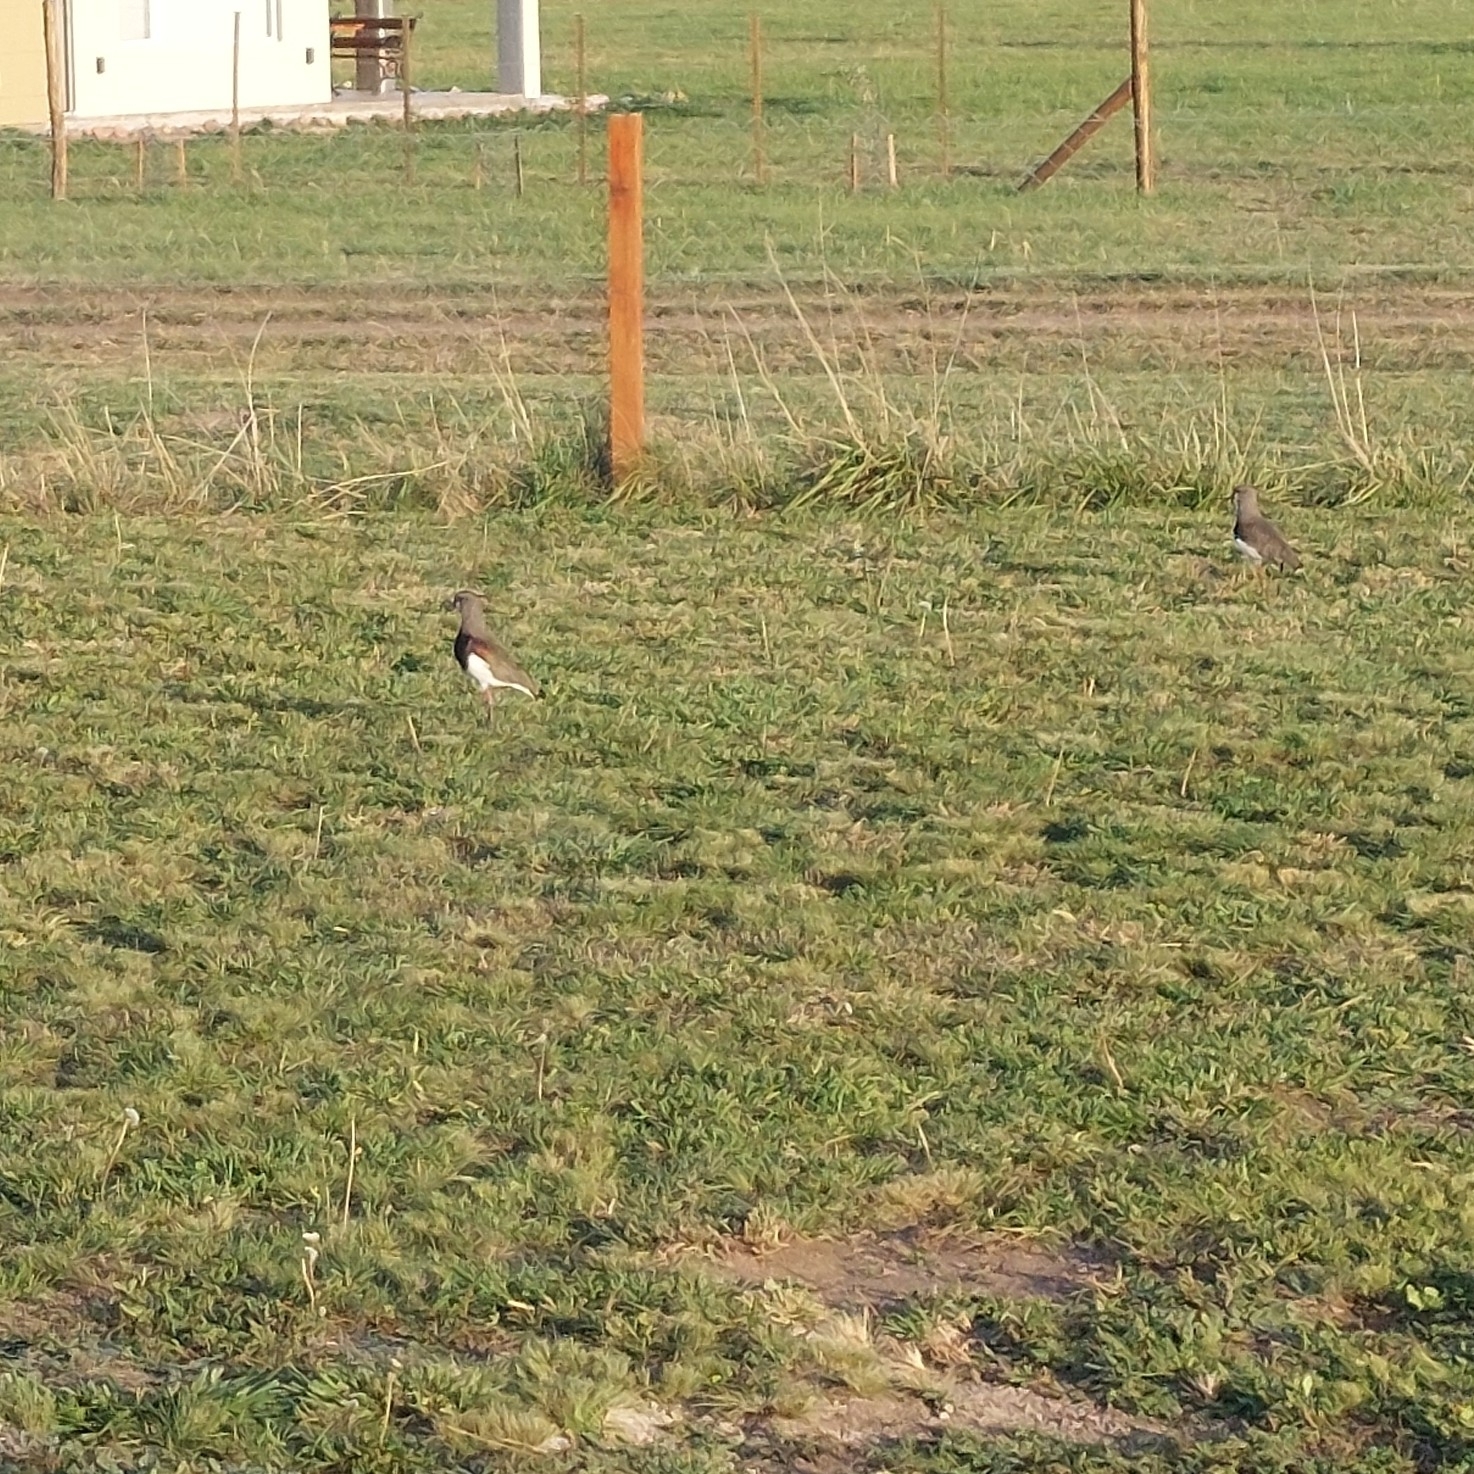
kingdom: Animalia
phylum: Chordata
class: Aves
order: Charadriiformes
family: Charadriidae
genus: Vanellus
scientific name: Vanellus chilensis
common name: Southern lapwing
